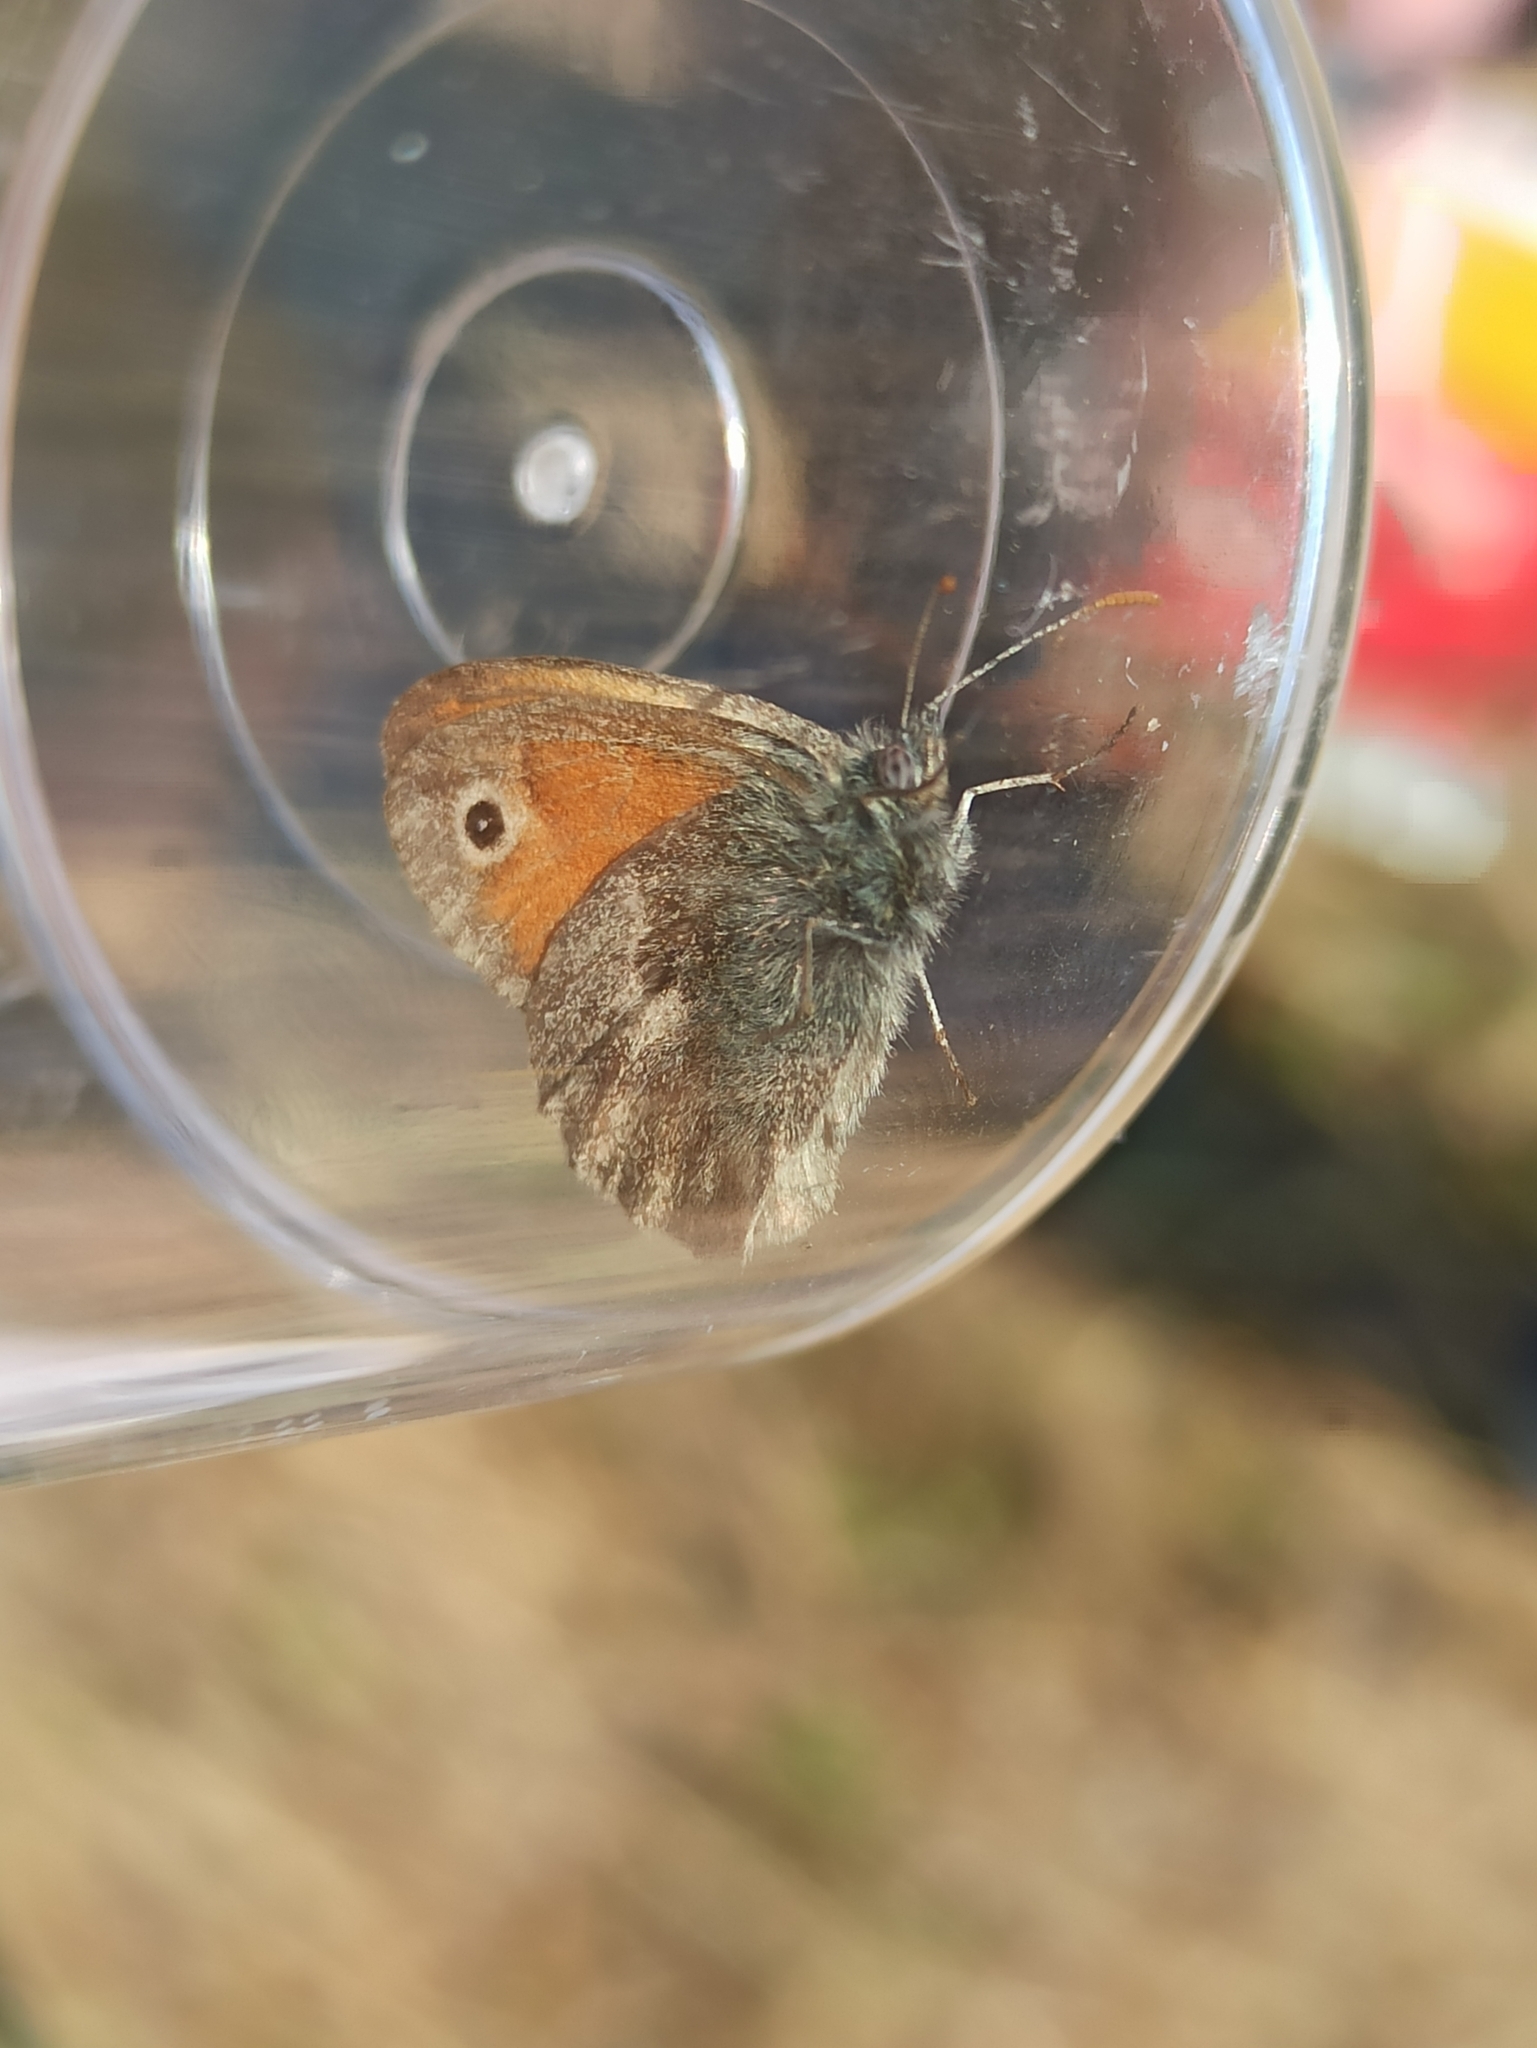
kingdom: Animalia
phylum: Arthropoda
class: Insecta
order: Lepidoptera
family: Nymphalidae
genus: Coenonympha
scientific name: Coenonympha pamphilus
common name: Small heath
